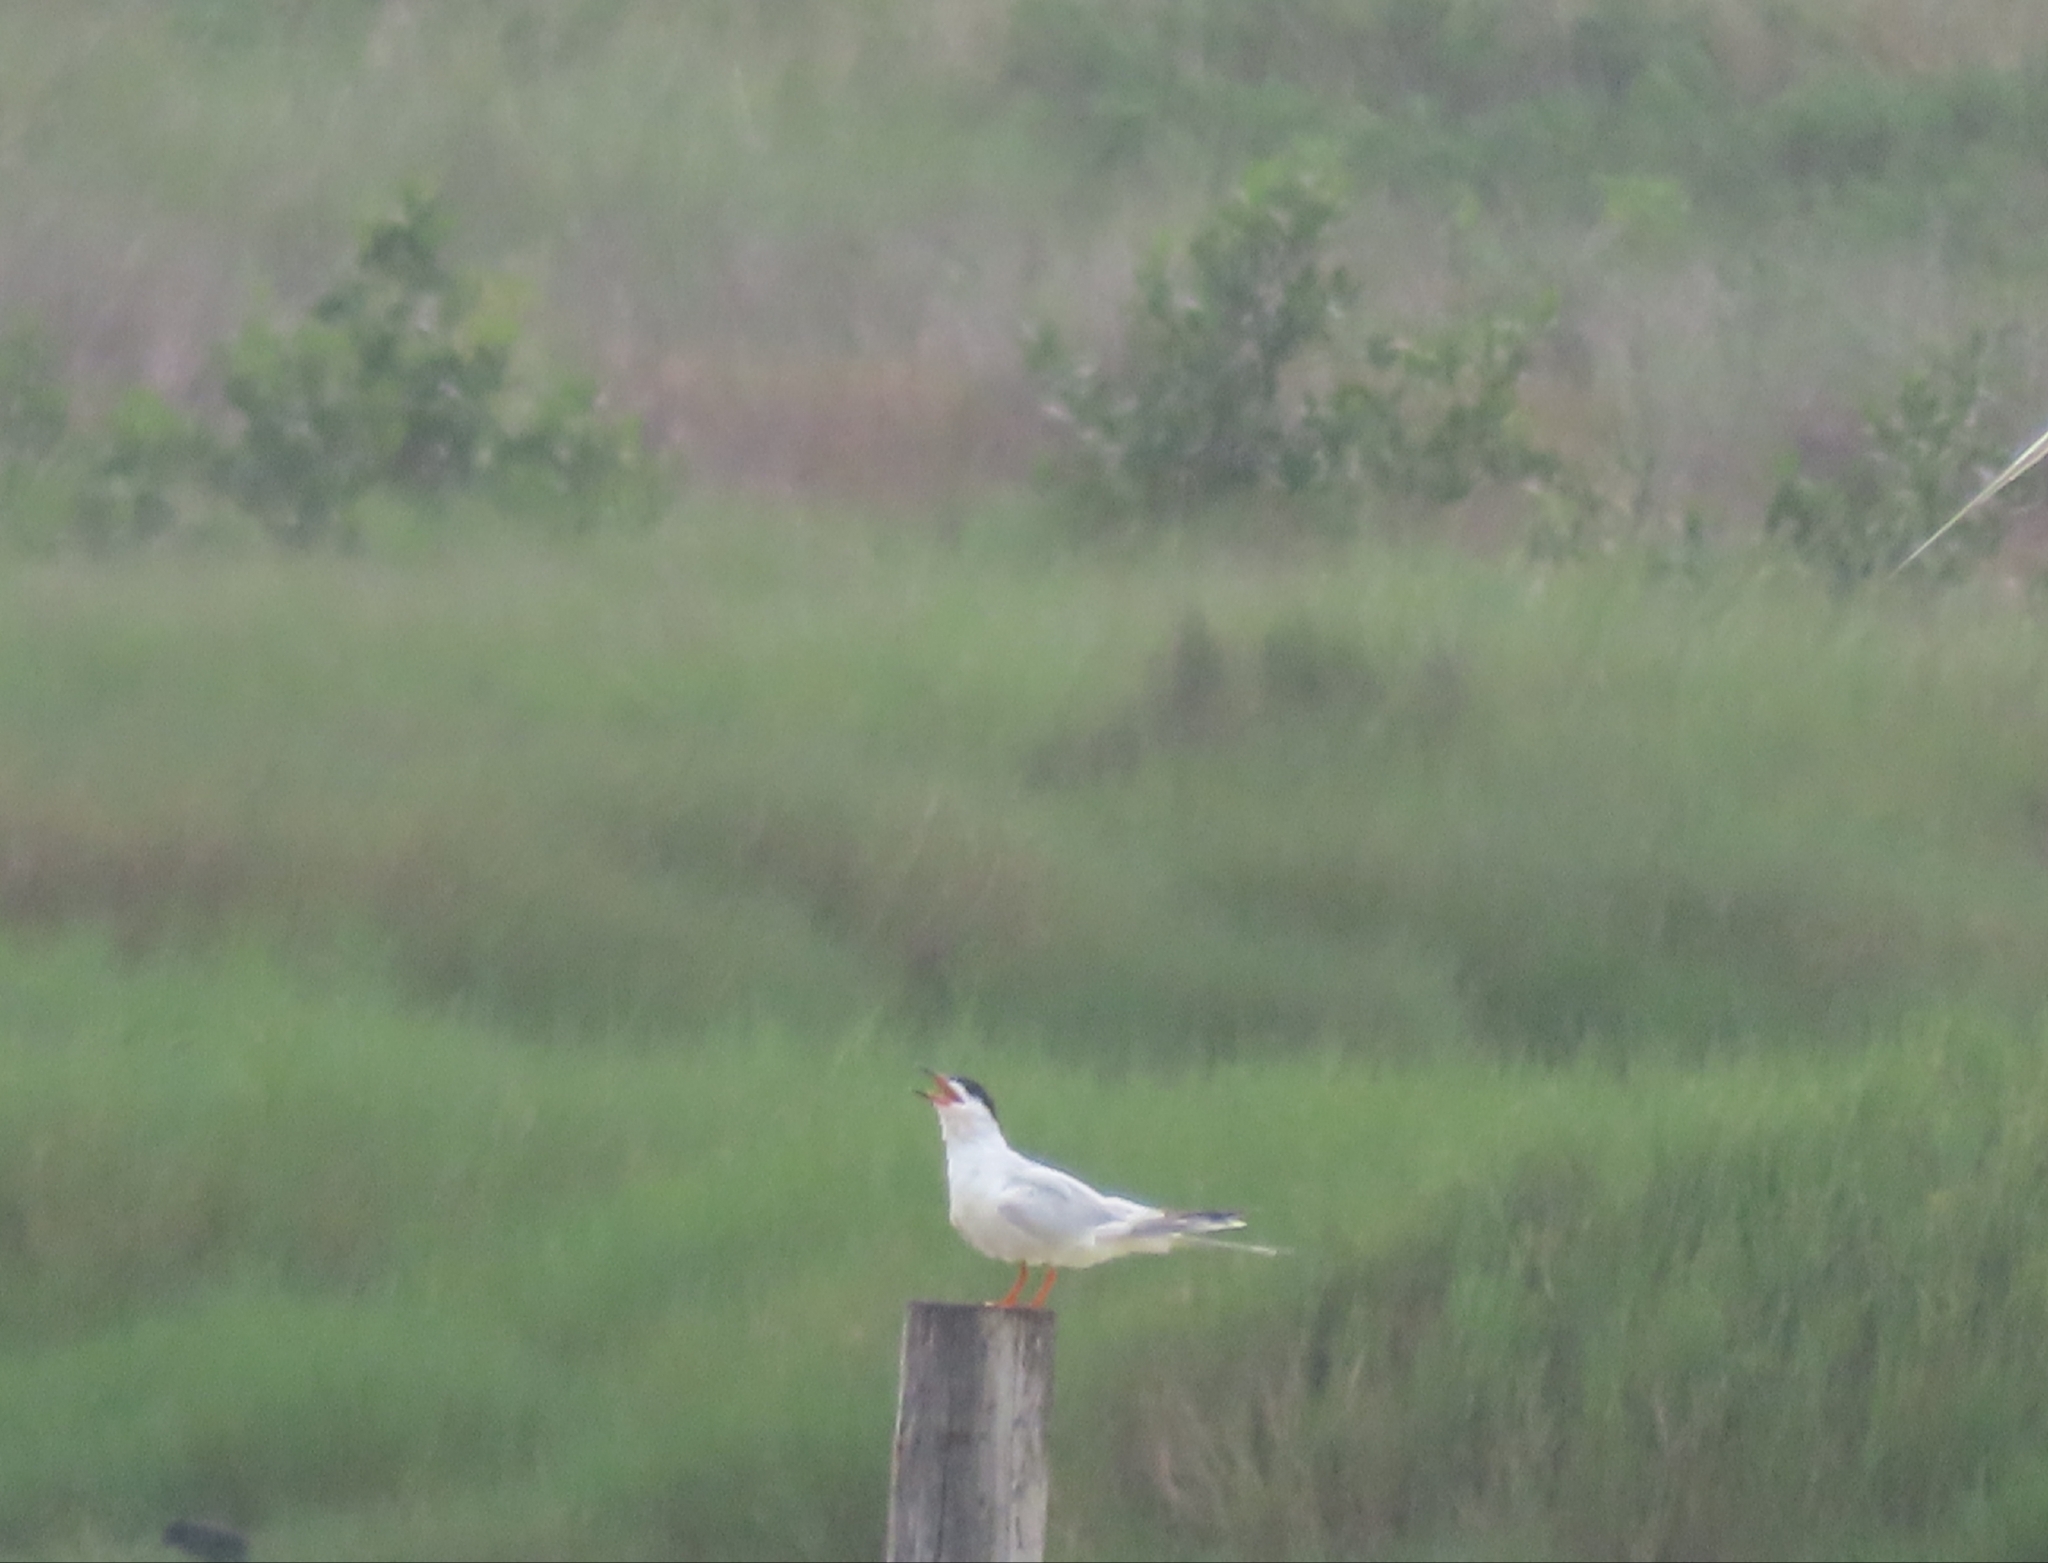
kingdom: Animalia
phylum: Chordata
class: Aves
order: Charadriiformes
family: Laridae
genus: Sterna
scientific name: Sterna forsteri
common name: Forster's tern
